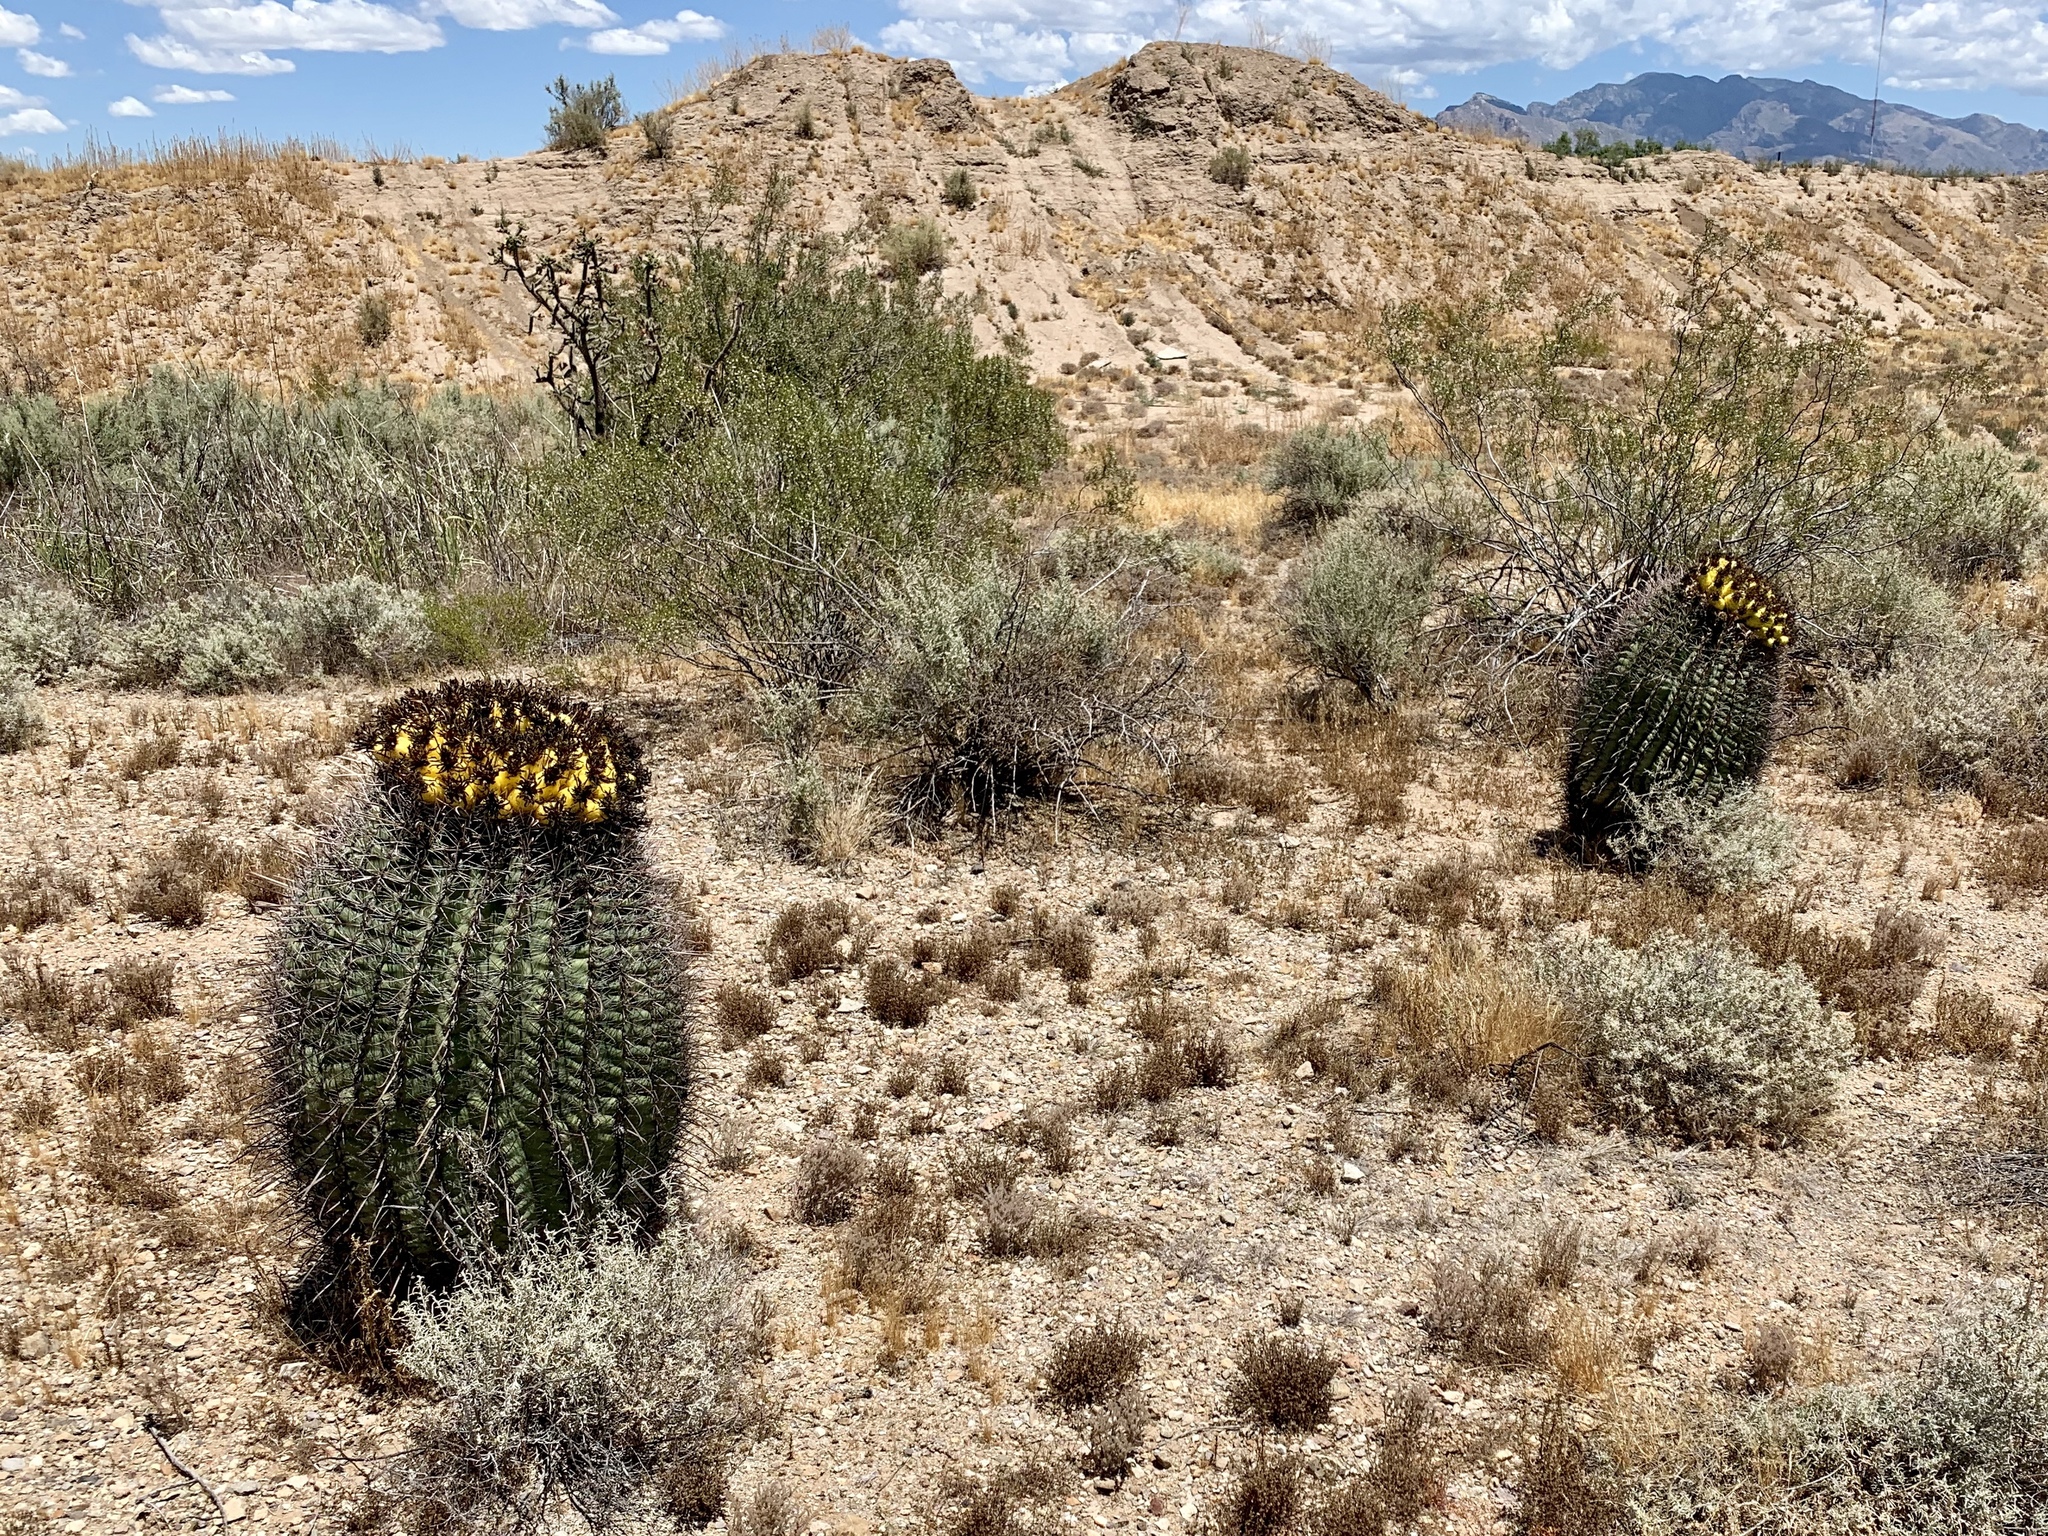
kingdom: Plantae
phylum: Tracheophyta
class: Magnoliopsida
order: Caryophyllales
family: Cactaceae
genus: Ferocactus
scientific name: Ferocactus wislizeni
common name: Candy barrel cactus
